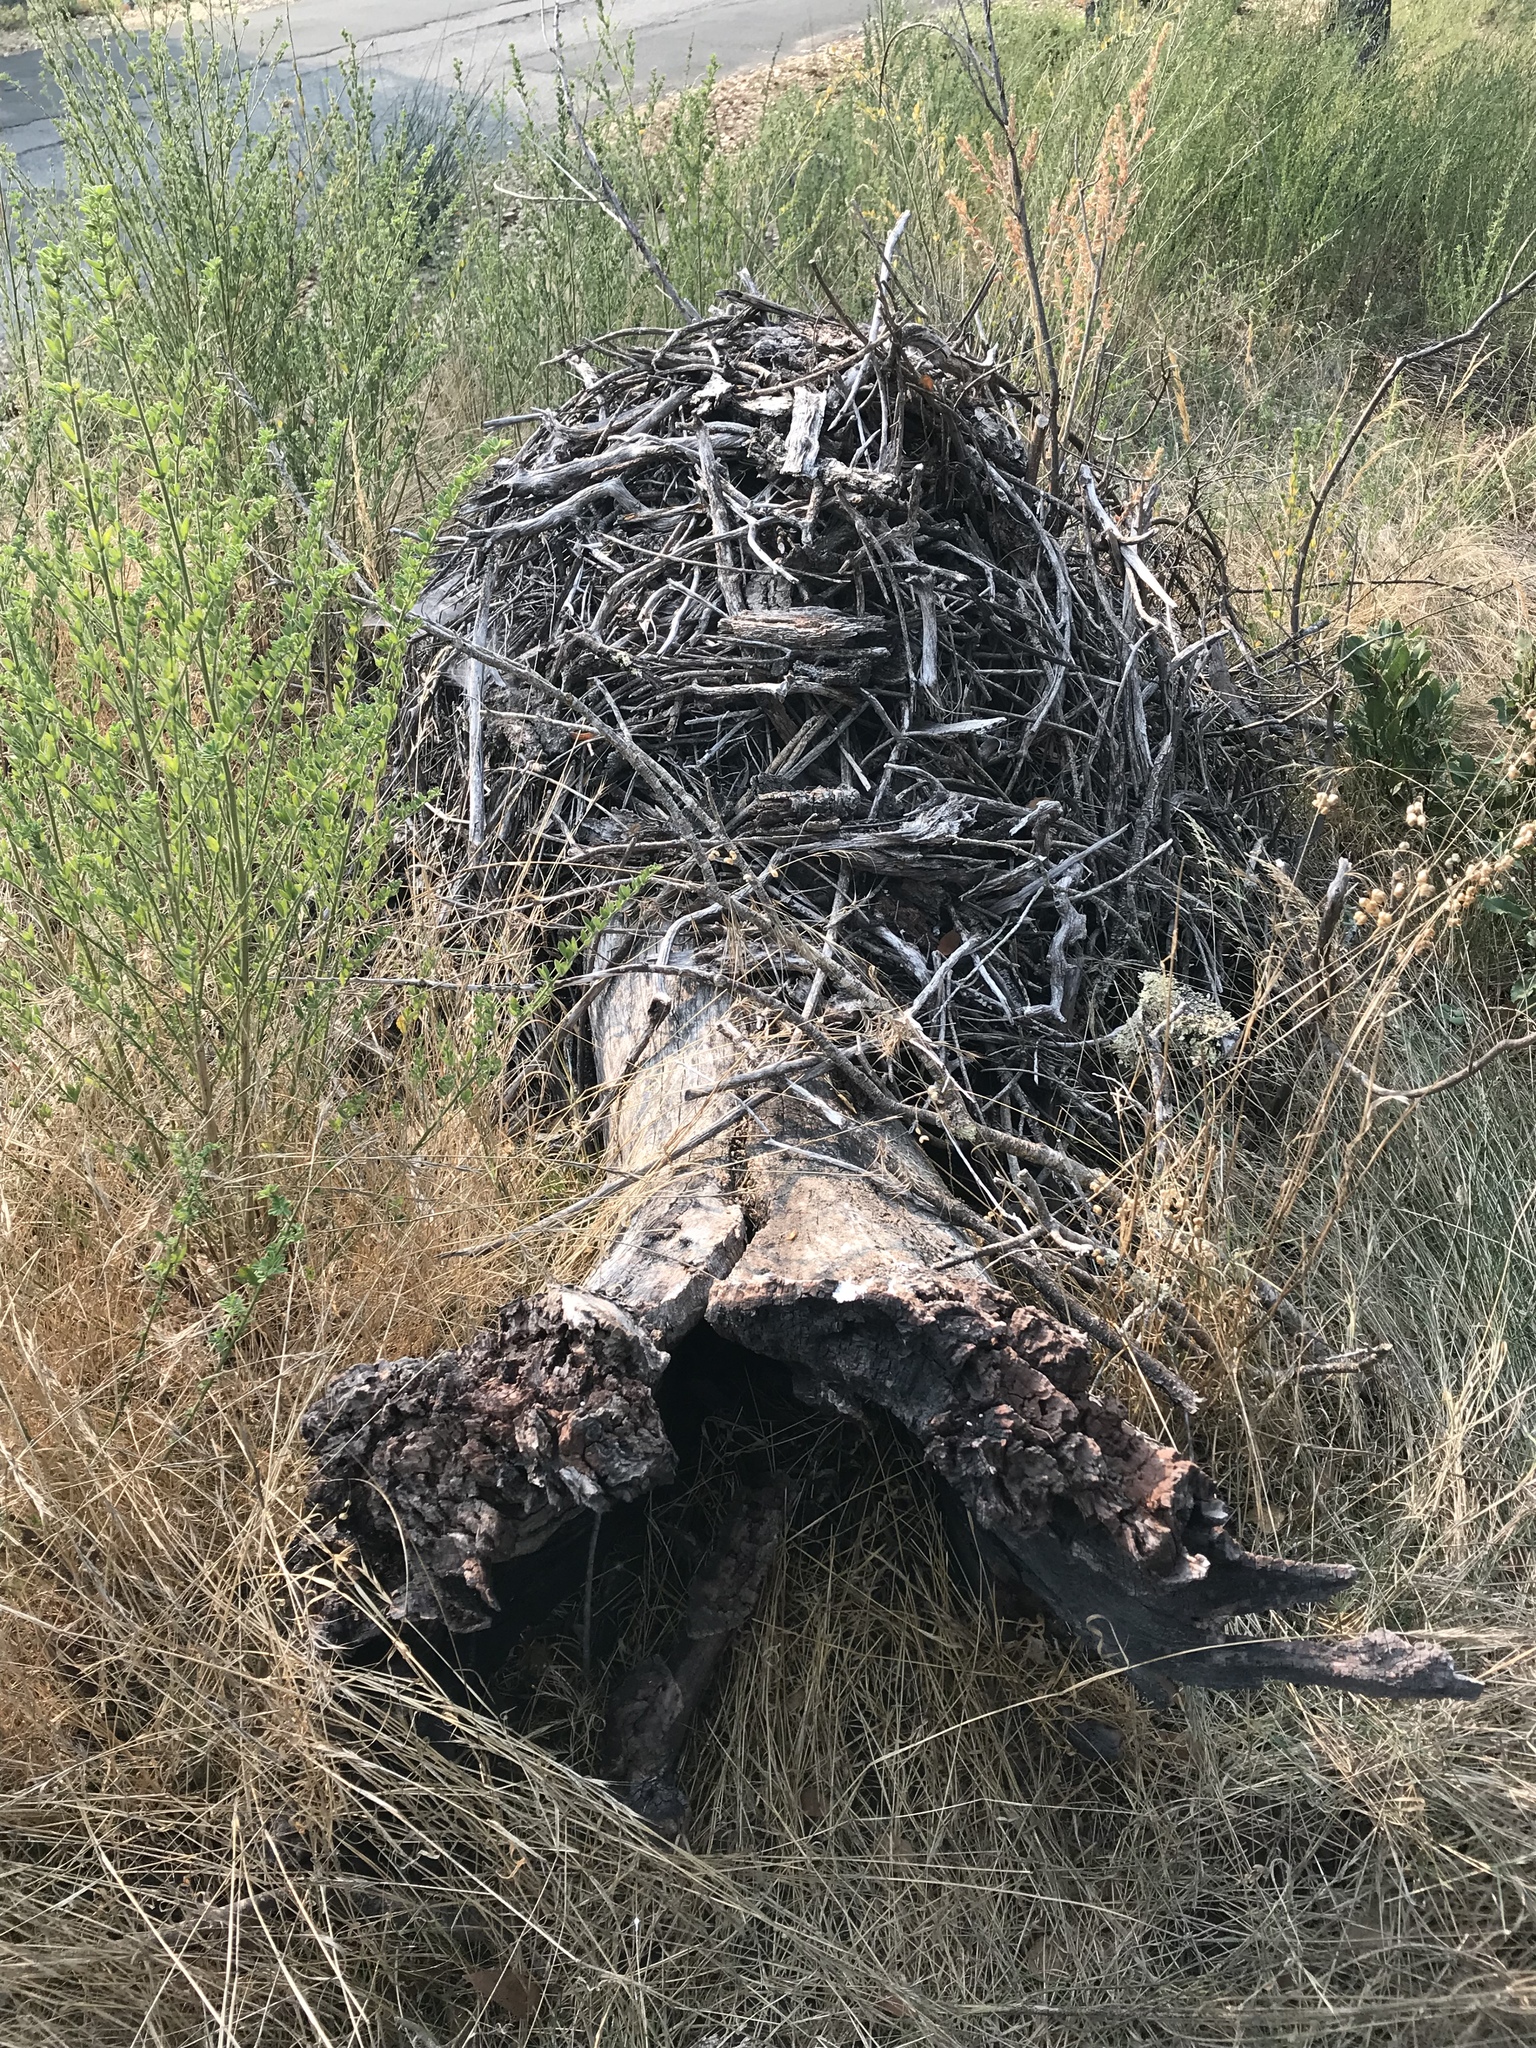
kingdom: Animalia
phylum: Chordata
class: Mammalia
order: Rodentia
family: Cricetidae
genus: Neotoma
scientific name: Neotoma
